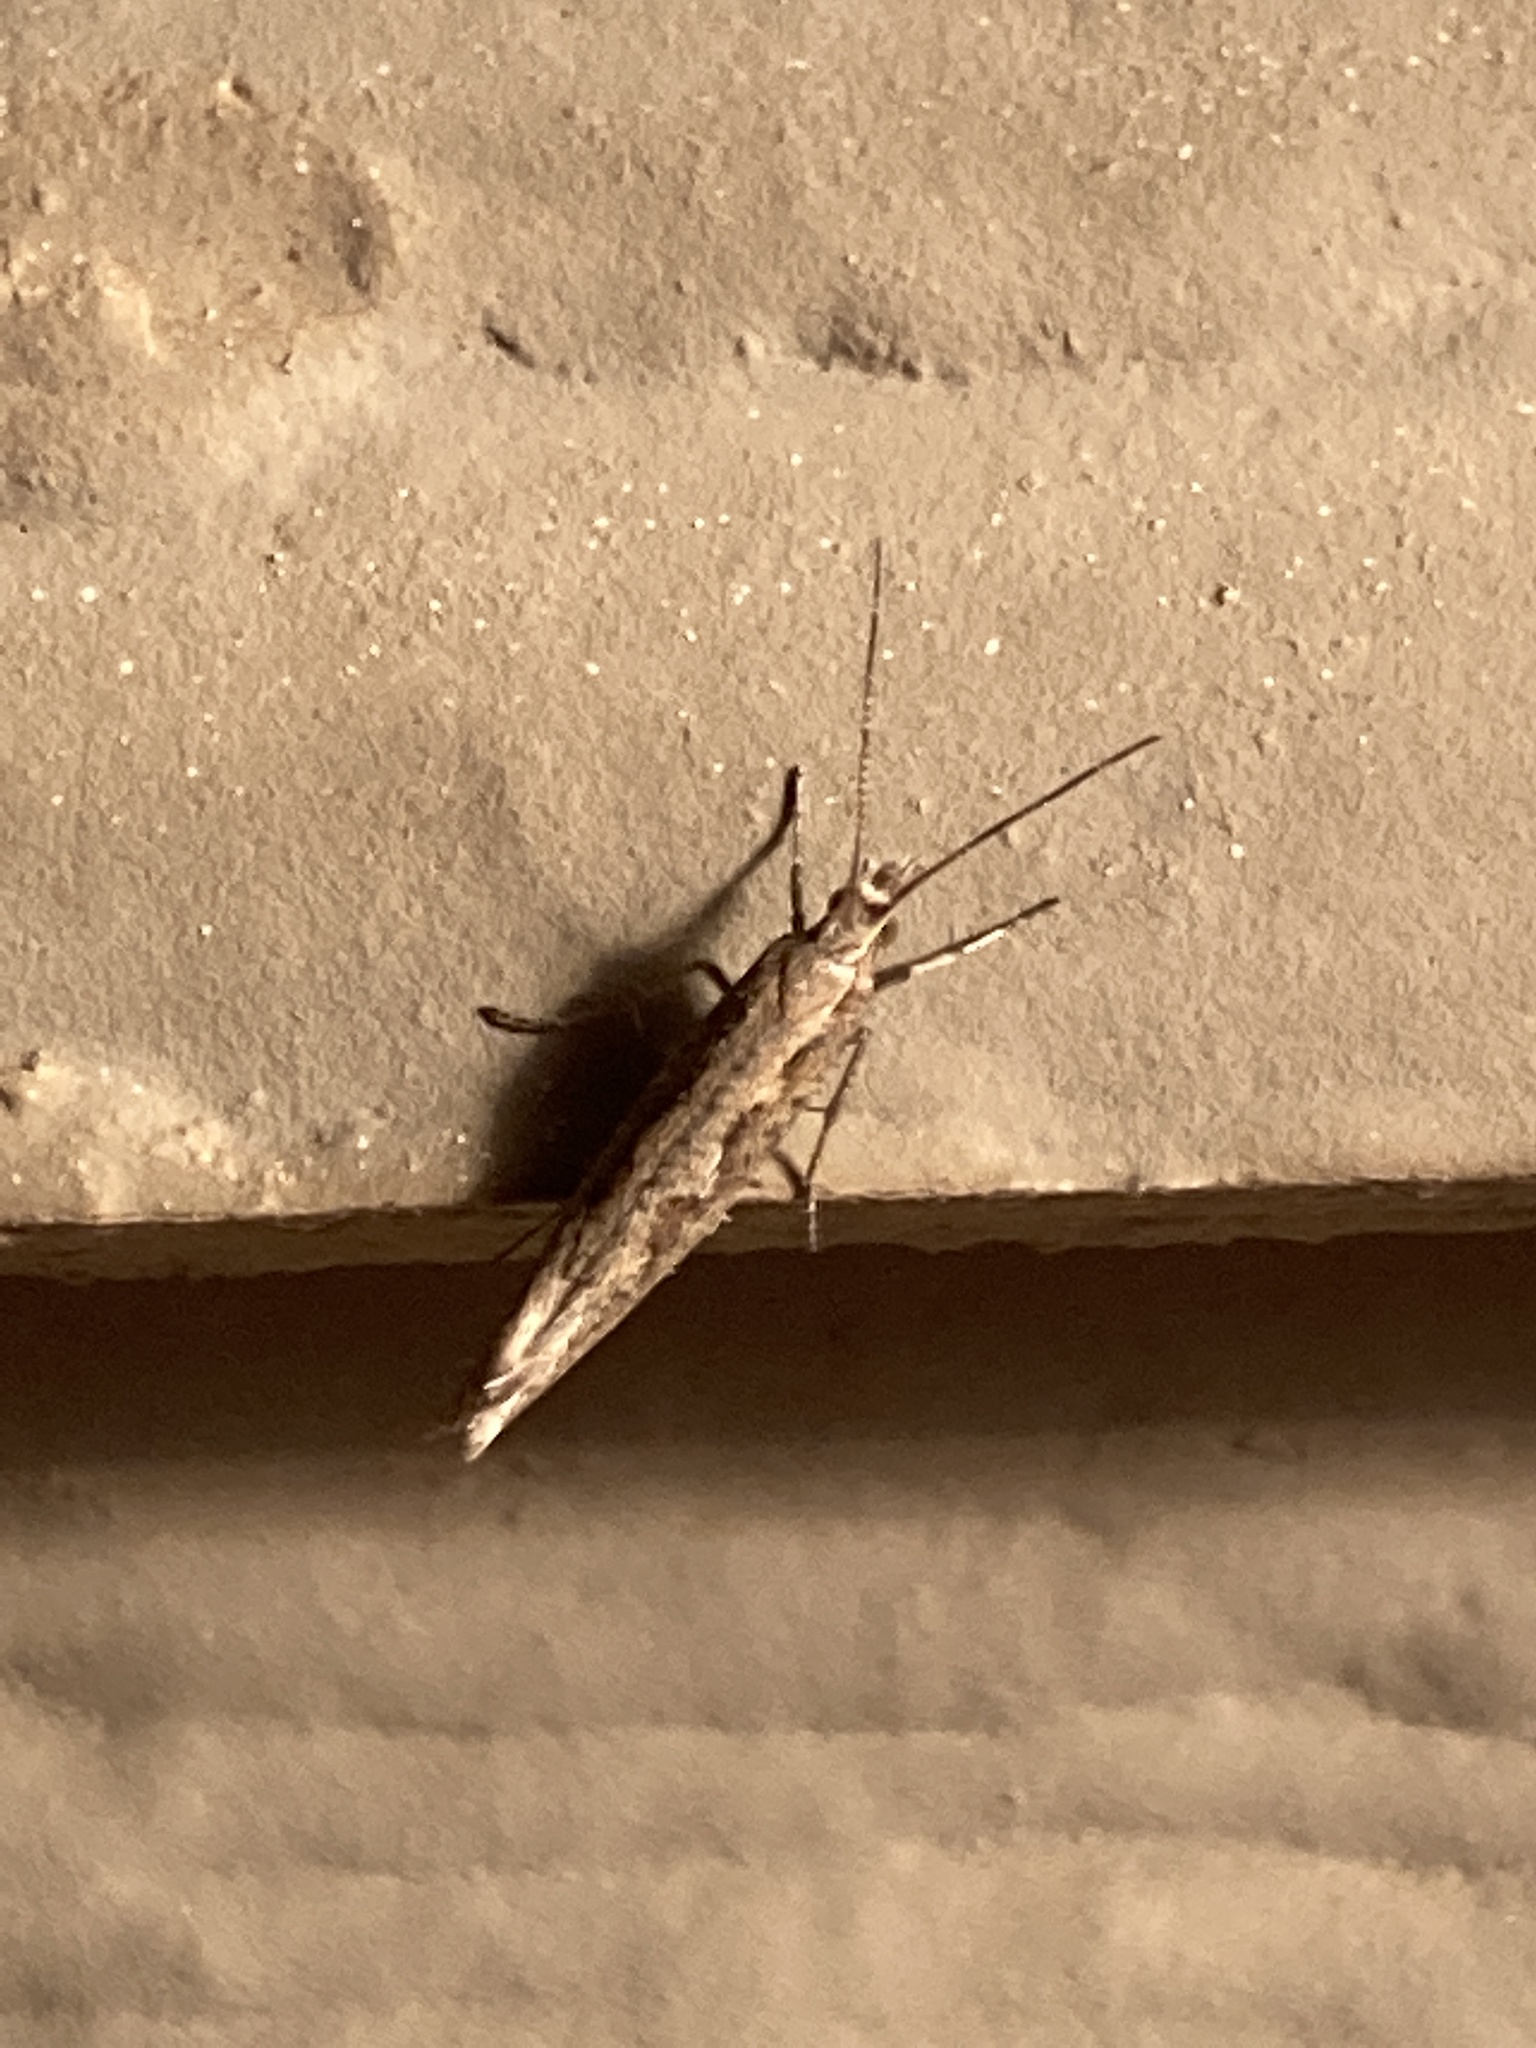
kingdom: Animalia
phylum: Arthropoda
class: Insecta
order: Lepidoptera
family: Plutellidae
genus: Plutella
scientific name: Plutella xylostella
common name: Diamond-back moth
